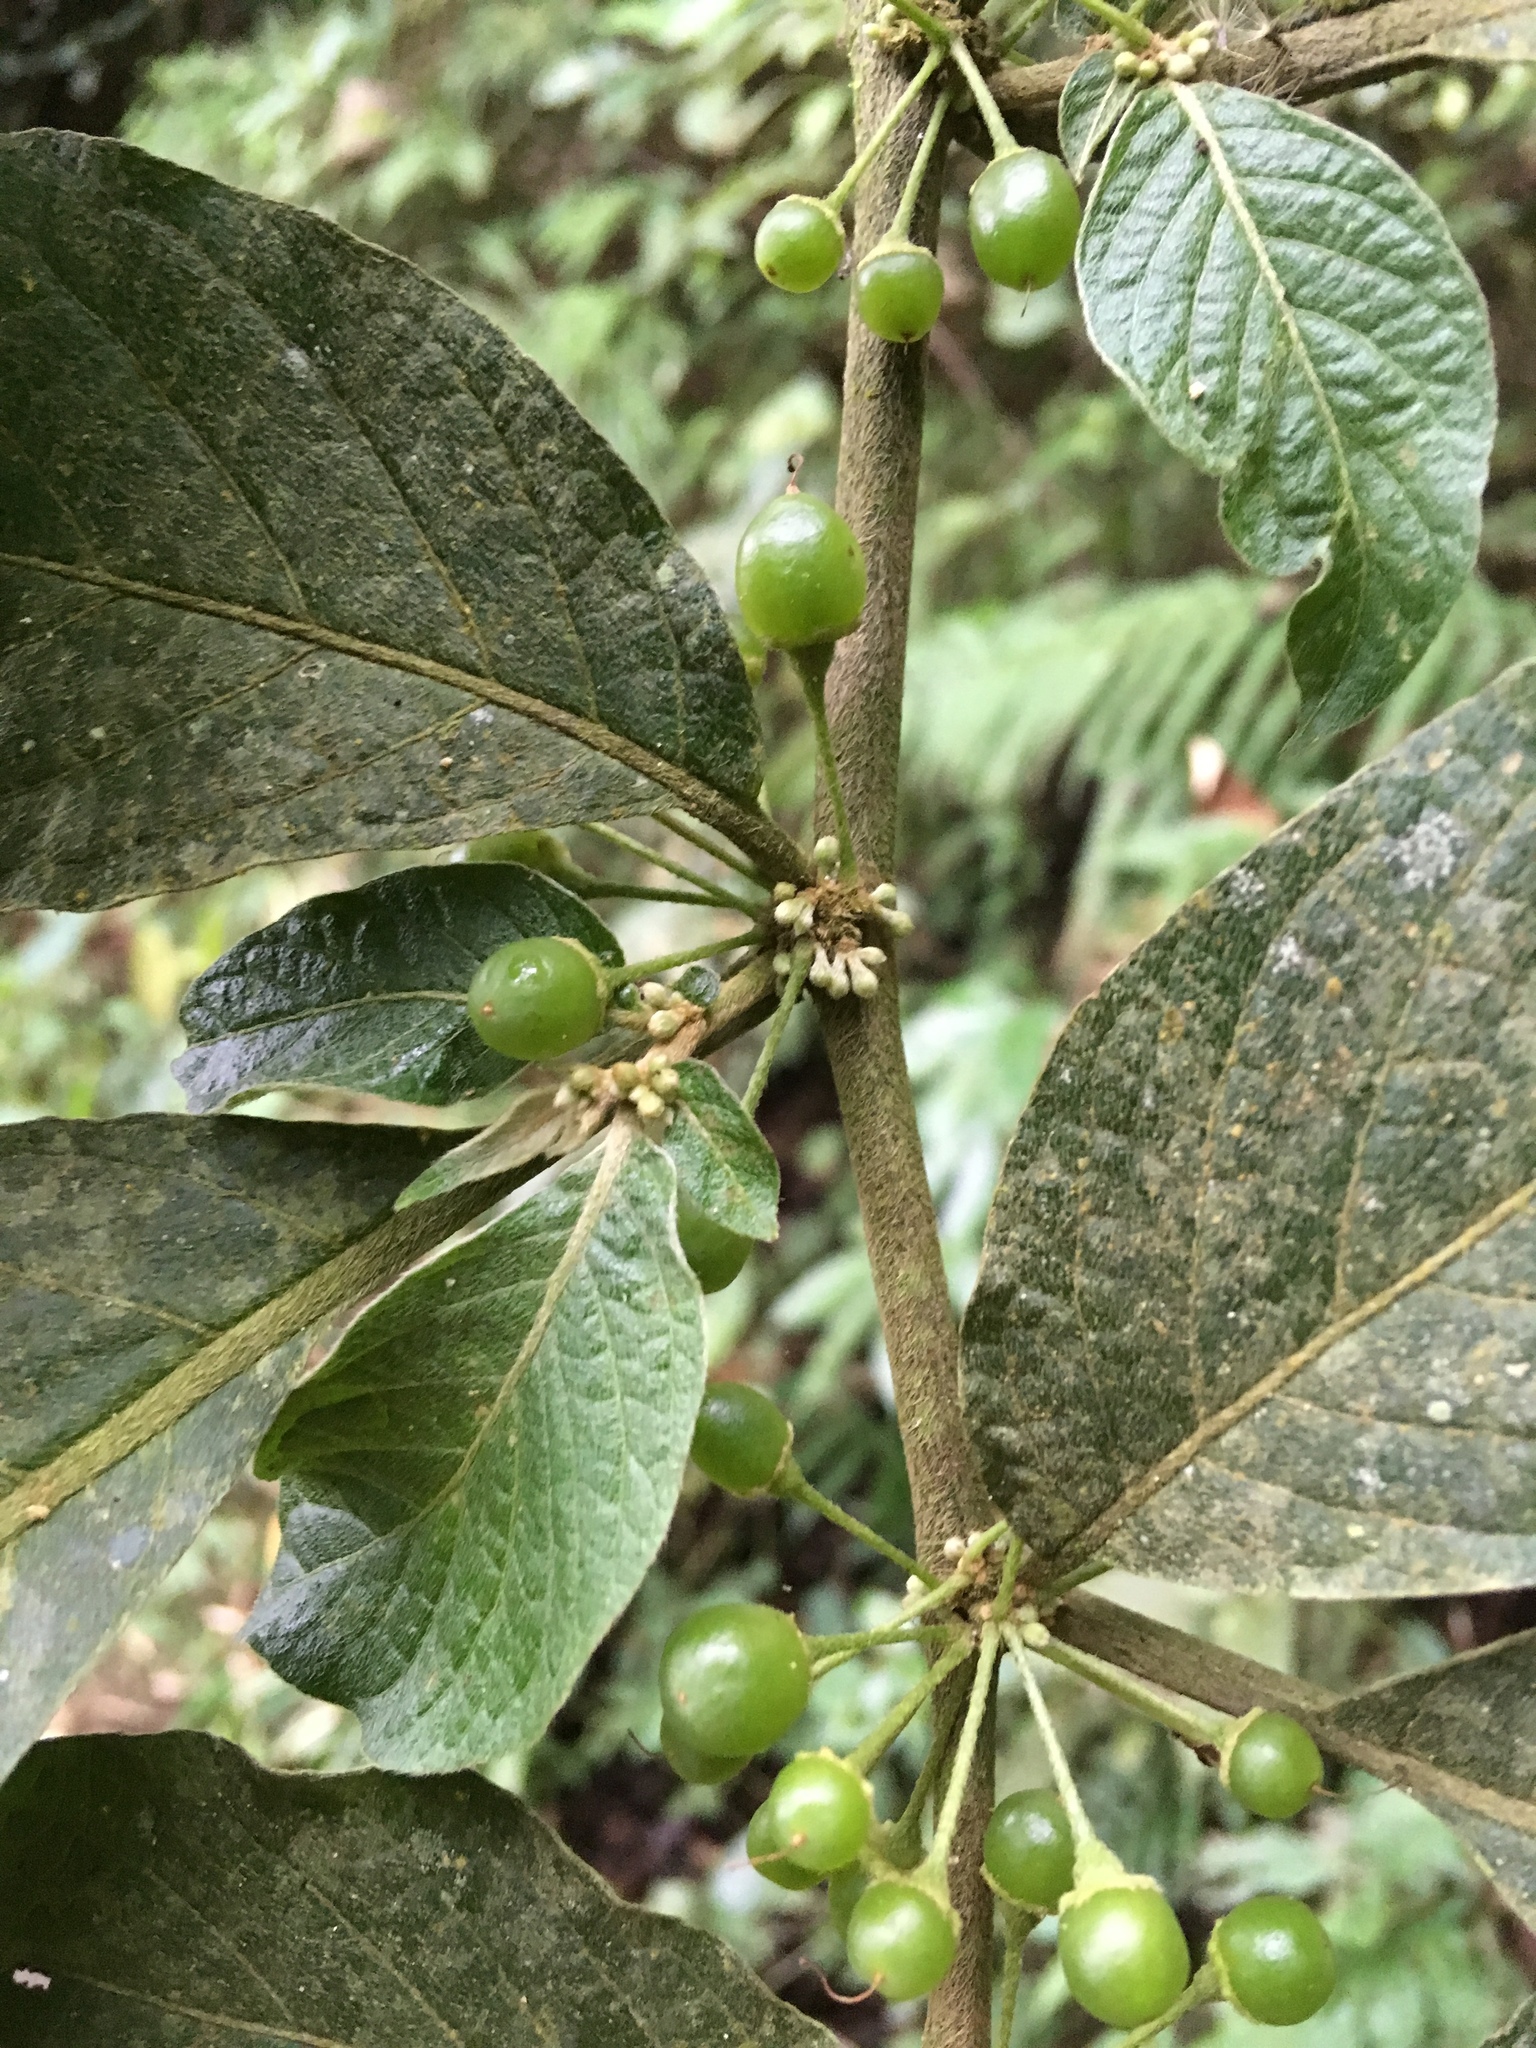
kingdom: Plantae
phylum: Tracheophyta
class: Magnoliopsida
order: Solanales
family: Solanaceae
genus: Lycianthes
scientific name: Lycianthes radiata
